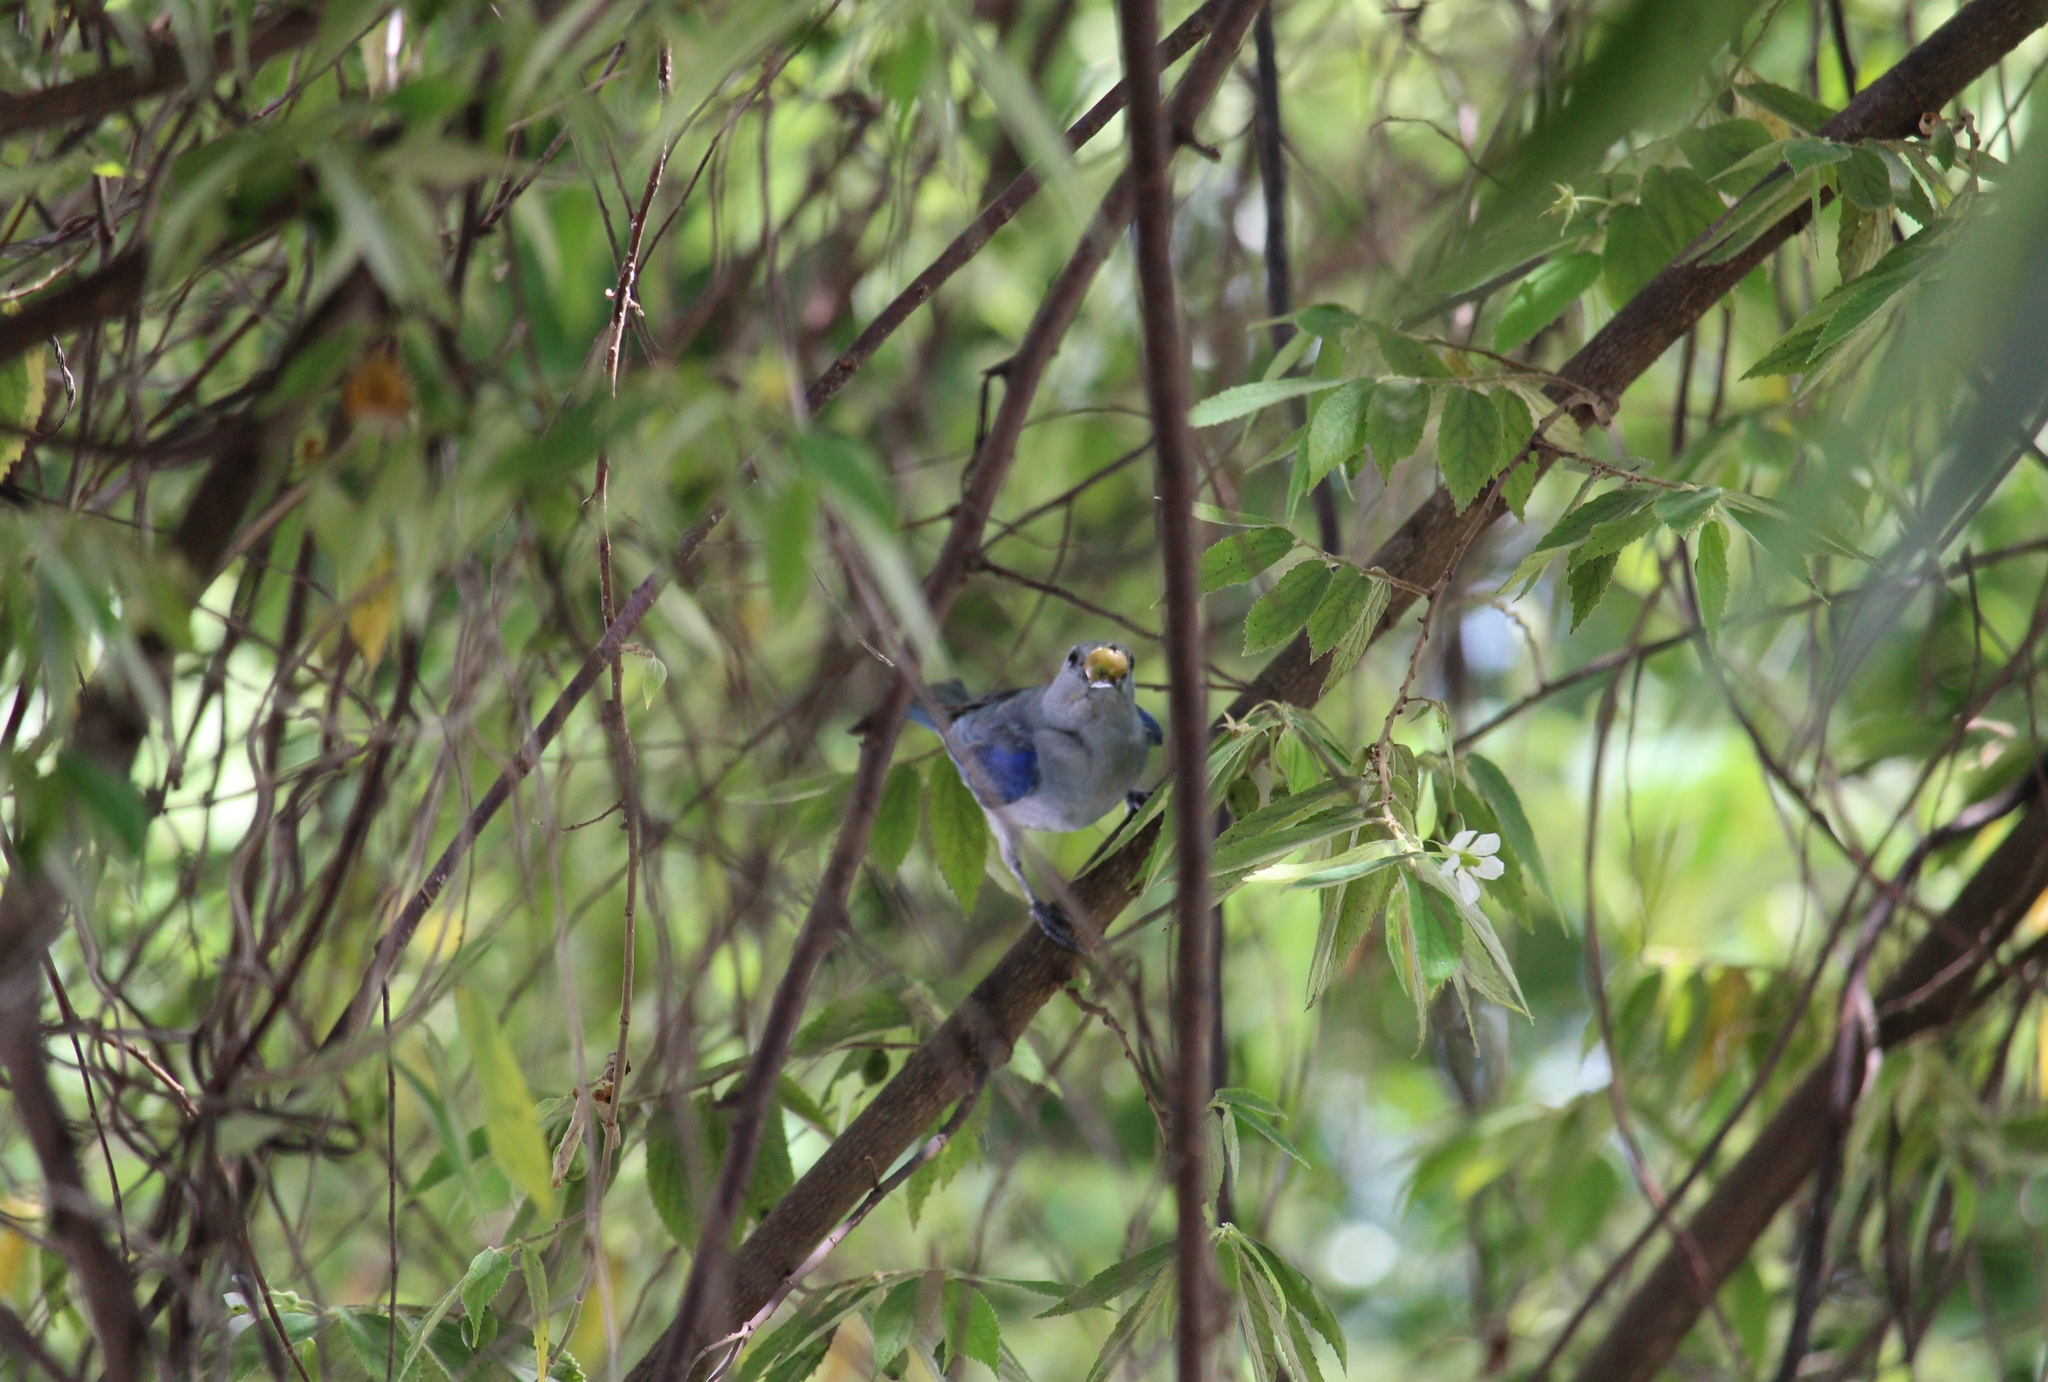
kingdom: Animalia
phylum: Chordata
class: Aves
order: Passeriformes
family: Thraupidae
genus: Thraupis
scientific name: Thraupis episcopus
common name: Blue-grey tanager
